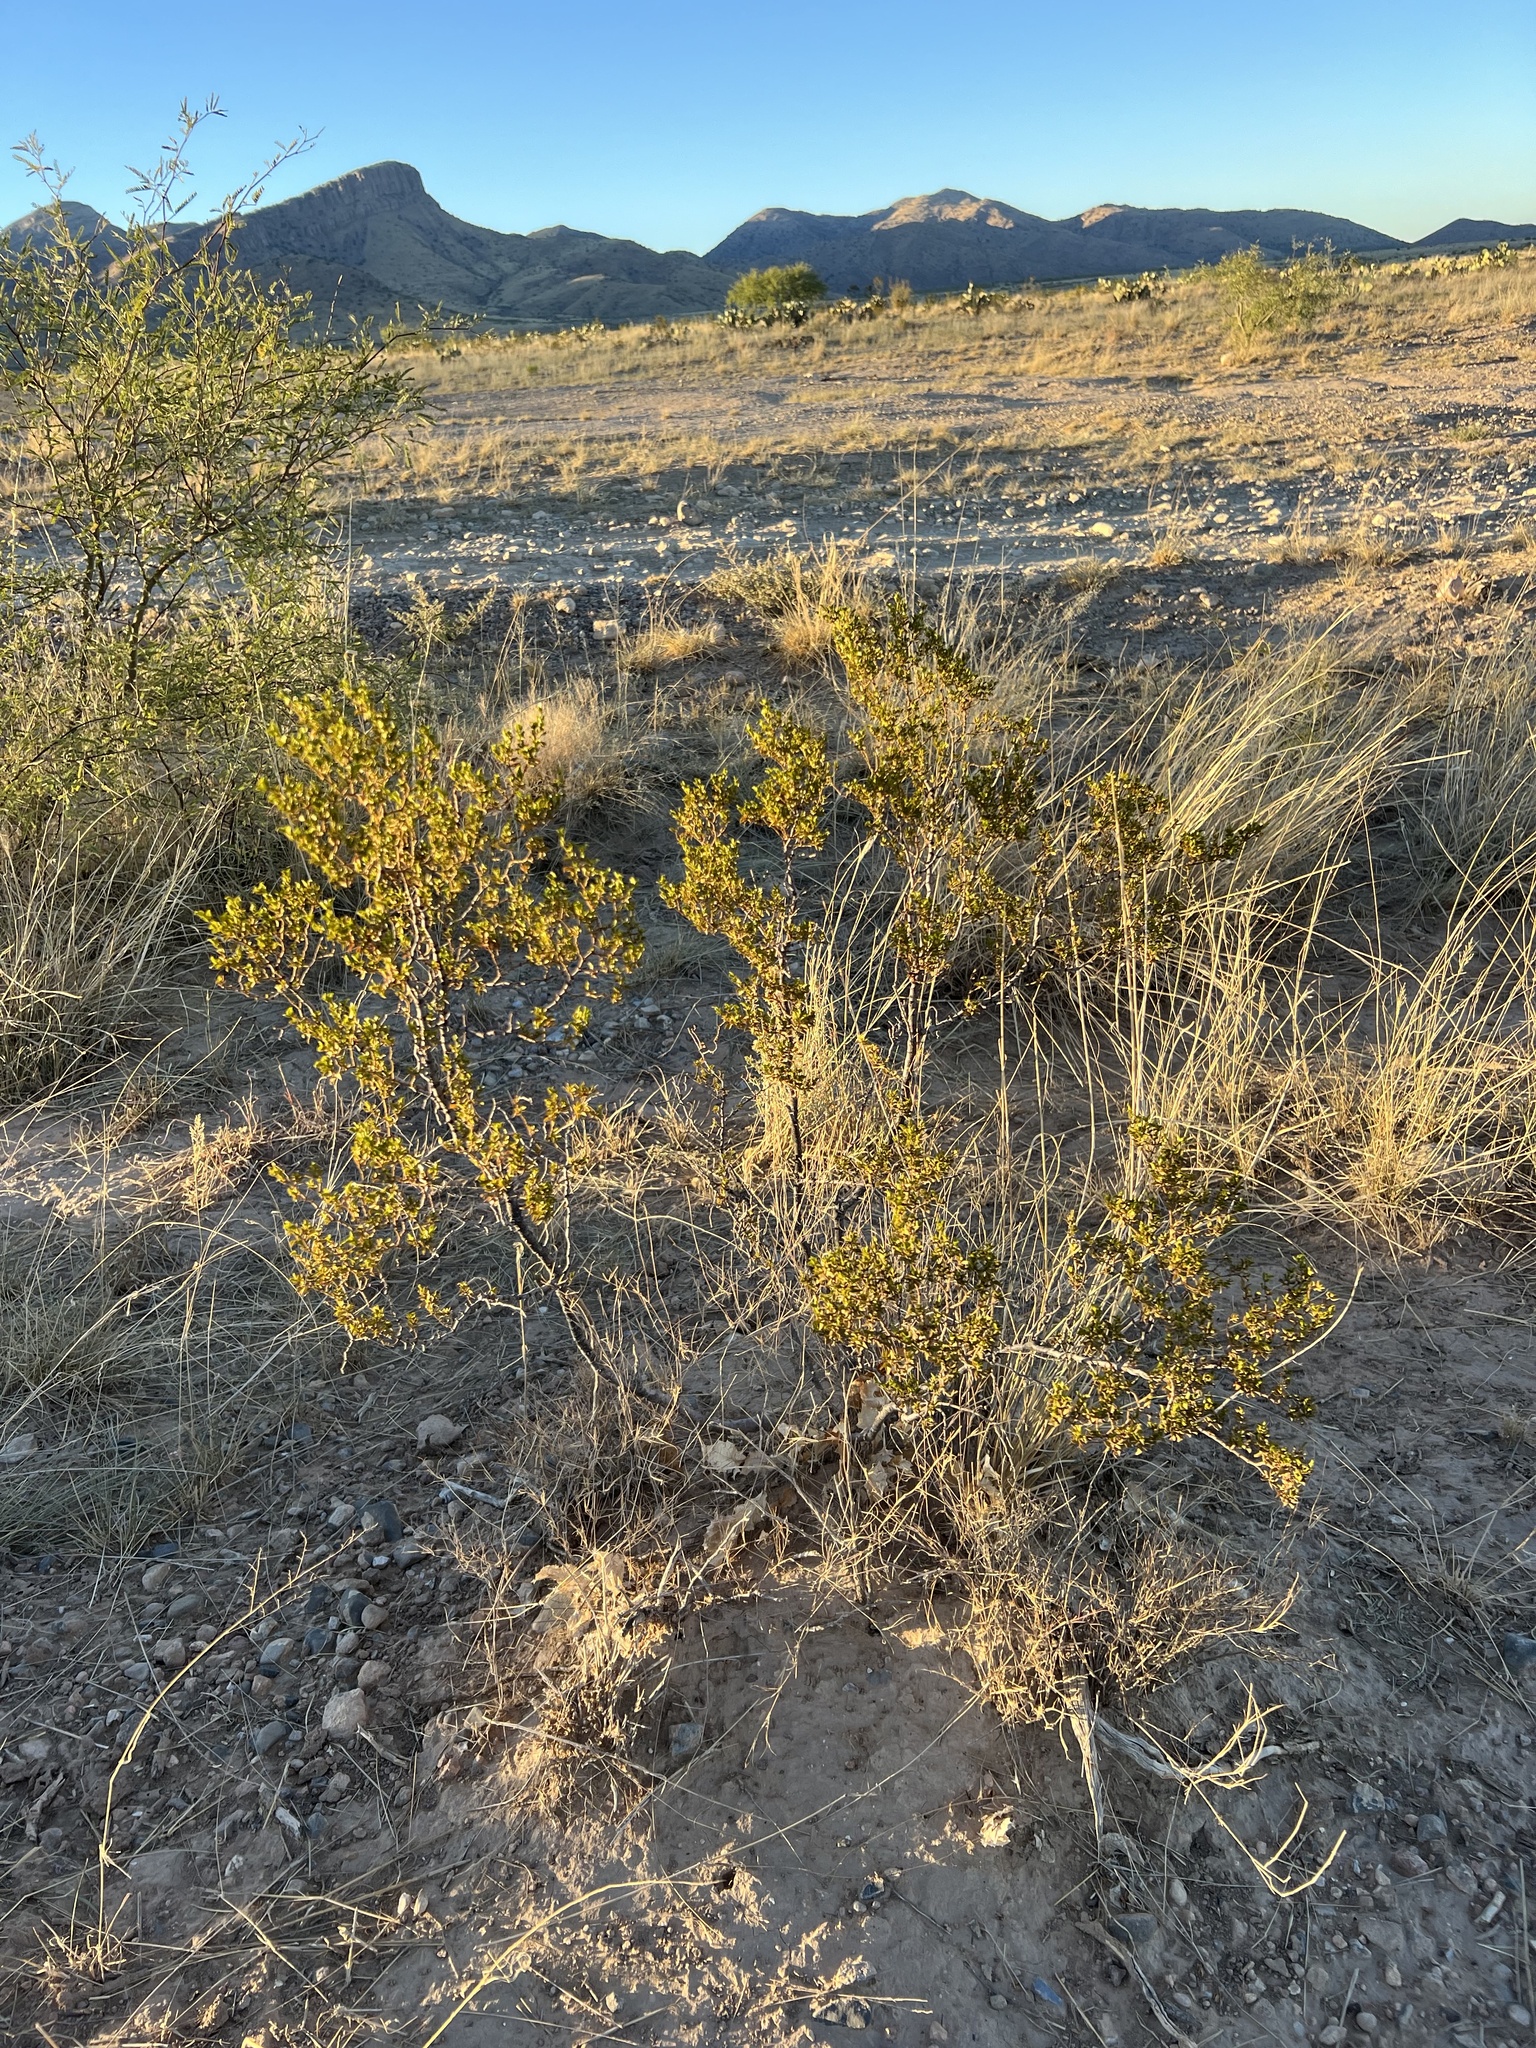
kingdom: Plantae
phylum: Tracheophyta
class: Magnoliopsida
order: Zygophyllales
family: Zygophyllaceae
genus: Larrea
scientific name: Larrea tridentata
